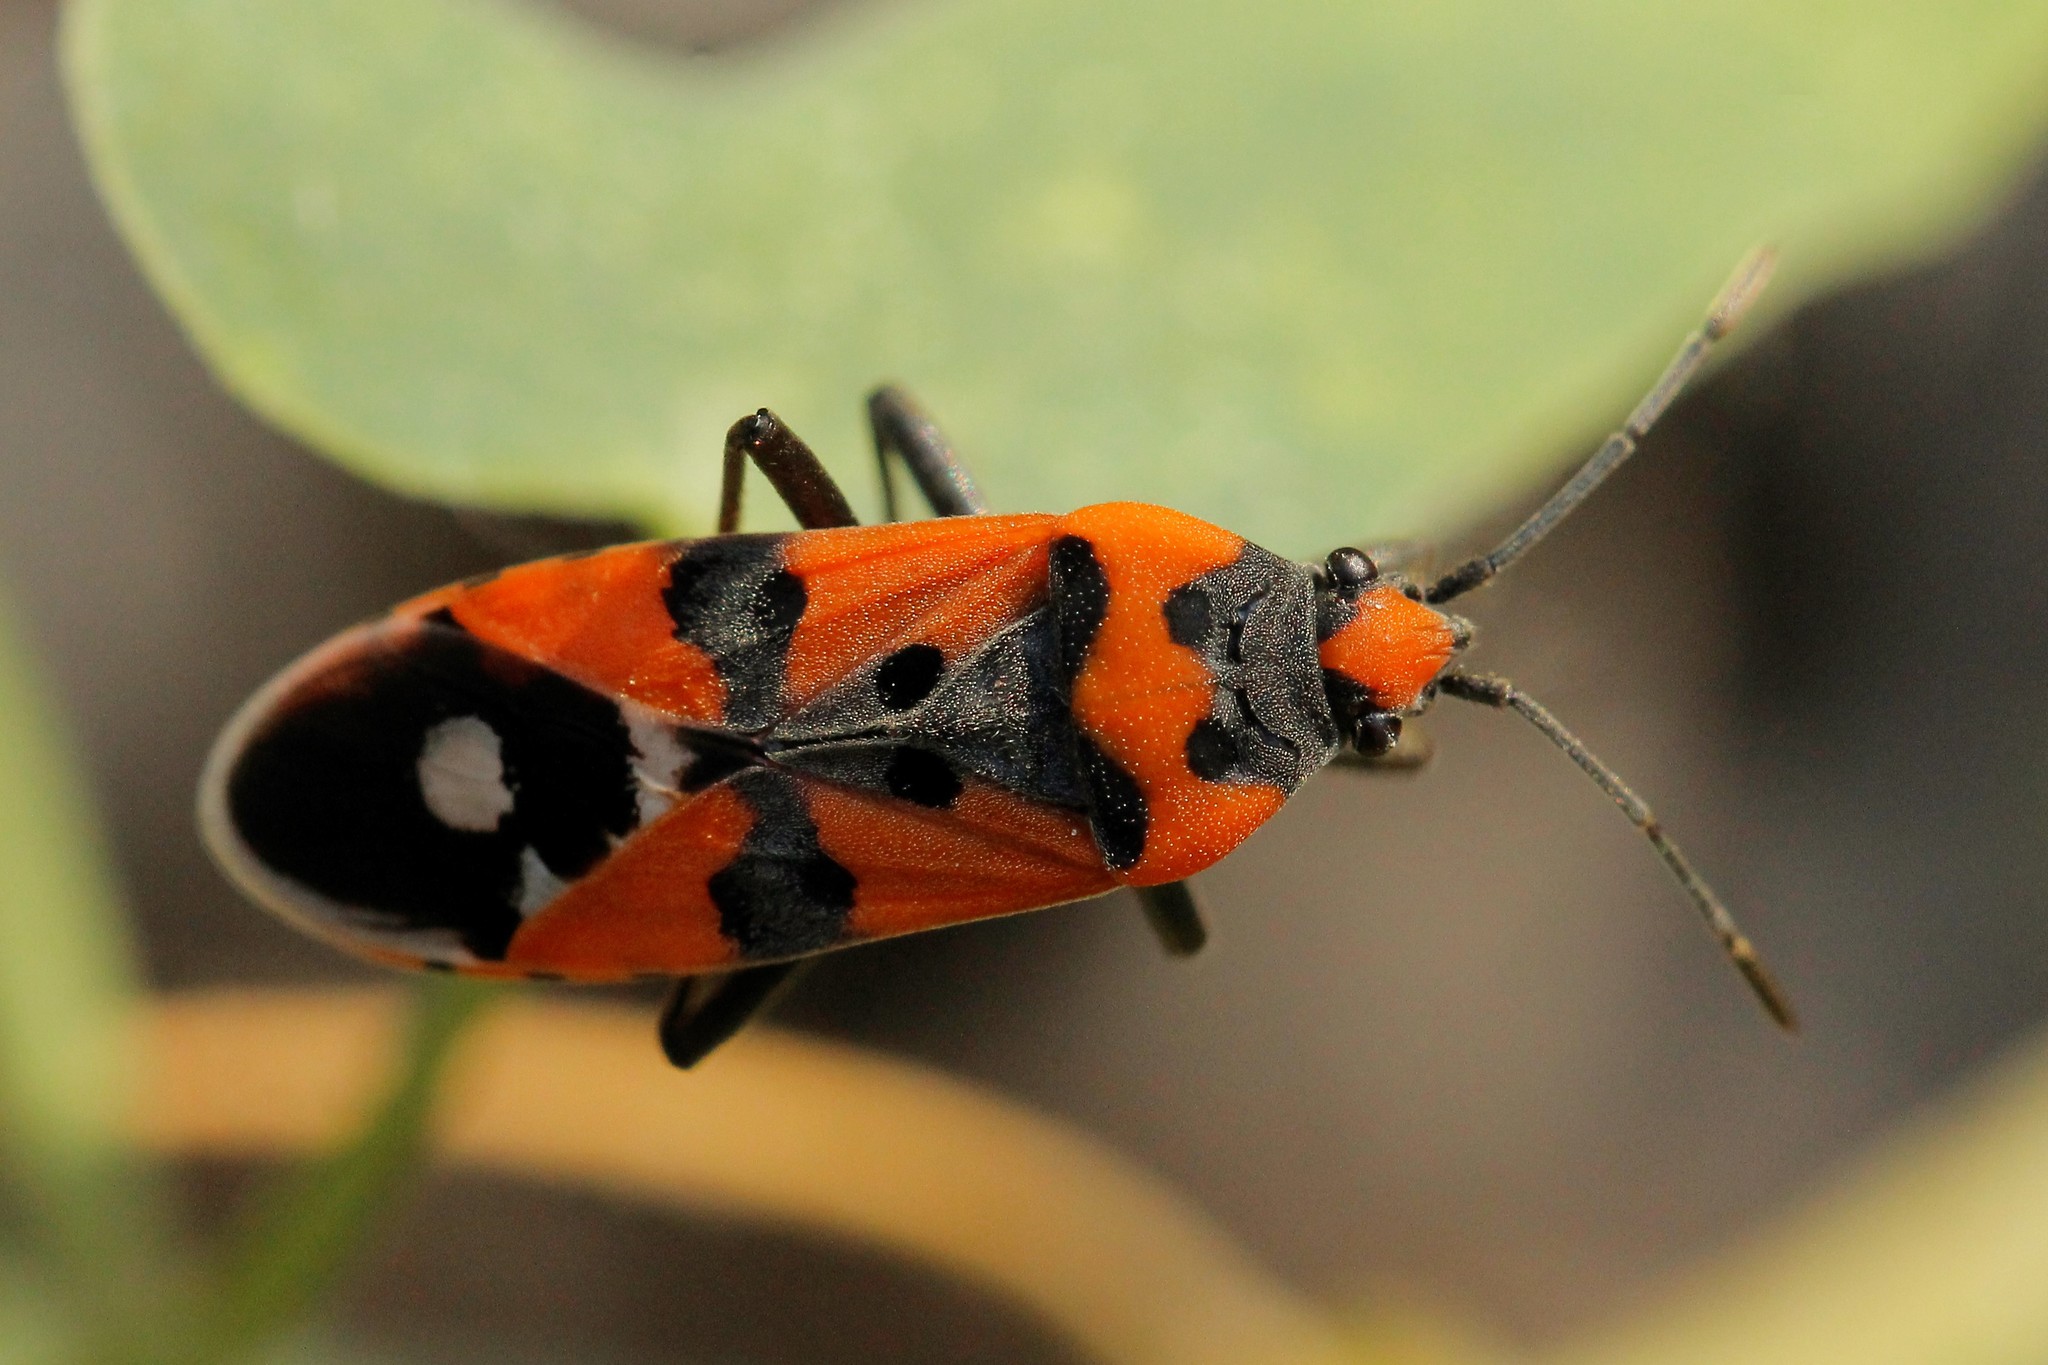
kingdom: Animalia
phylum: Arthropoda
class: Insecta
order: Hemiptera
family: Lygaeidae
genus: Lygaeus
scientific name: Lygaeus simulans
